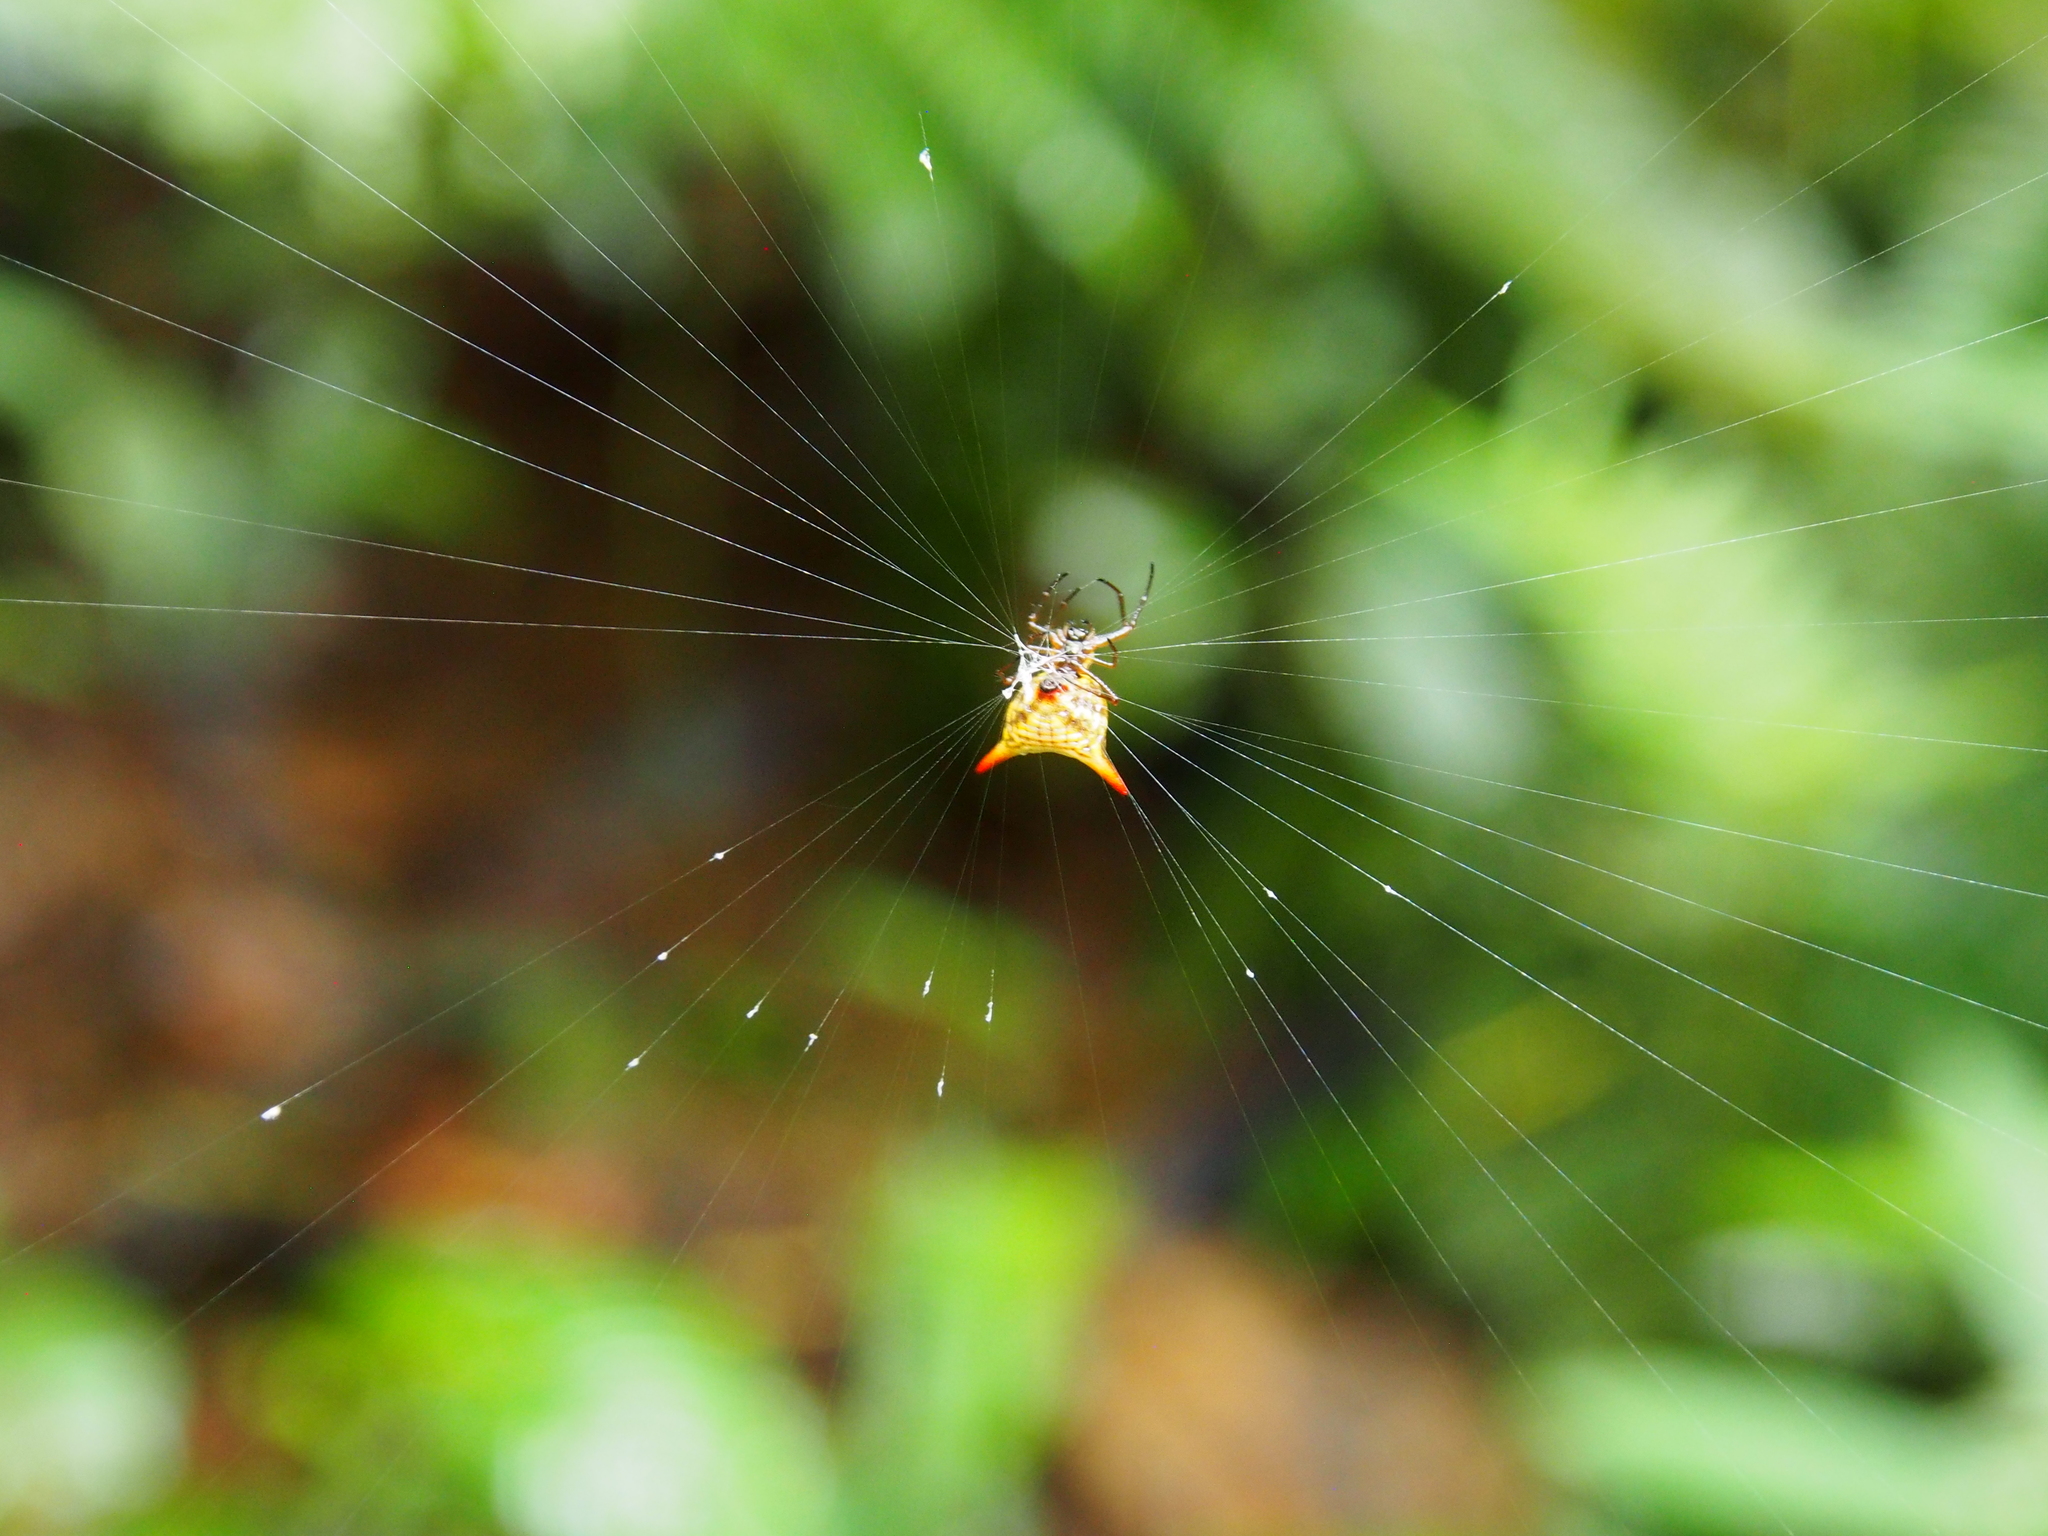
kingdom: Animalia
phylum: Arthropoda
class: Arachnida
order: Araneae
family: Araneidae
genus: Micrathena
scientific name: Micrathena bimucronata
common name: Orb weavers
